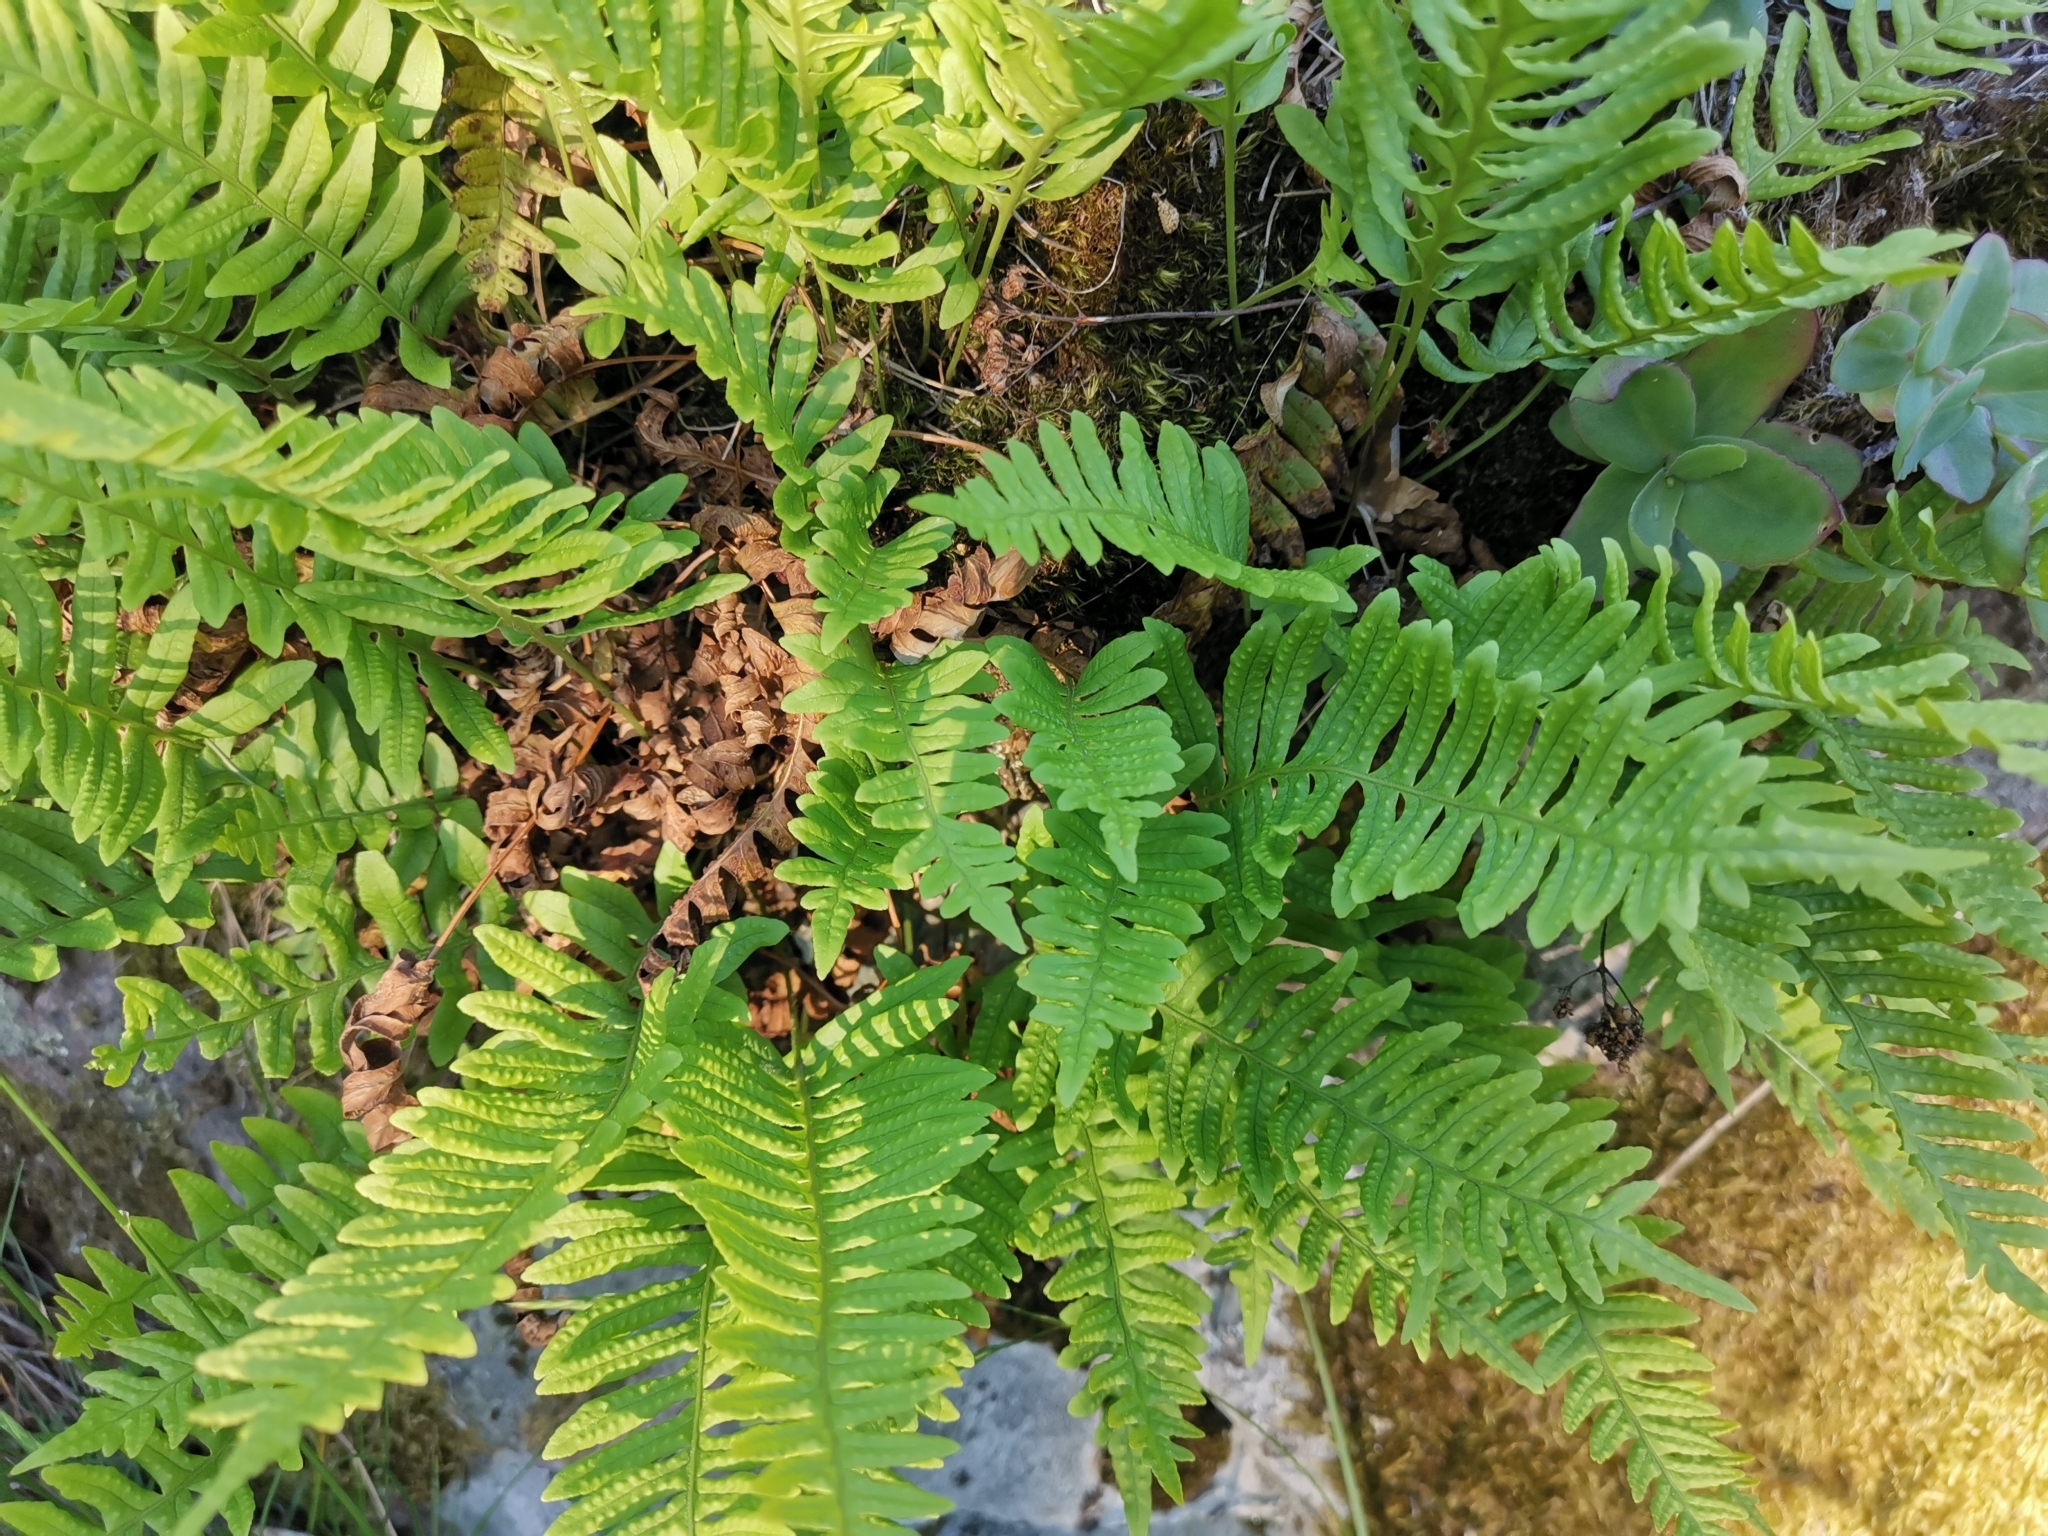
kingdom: Plantae
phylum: Tracheophyta
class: Polypodiopsida
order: Polypodiales
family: Polypodiaceae
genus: Polypodium
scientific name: Polypodium vulgare
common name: Common polypody
